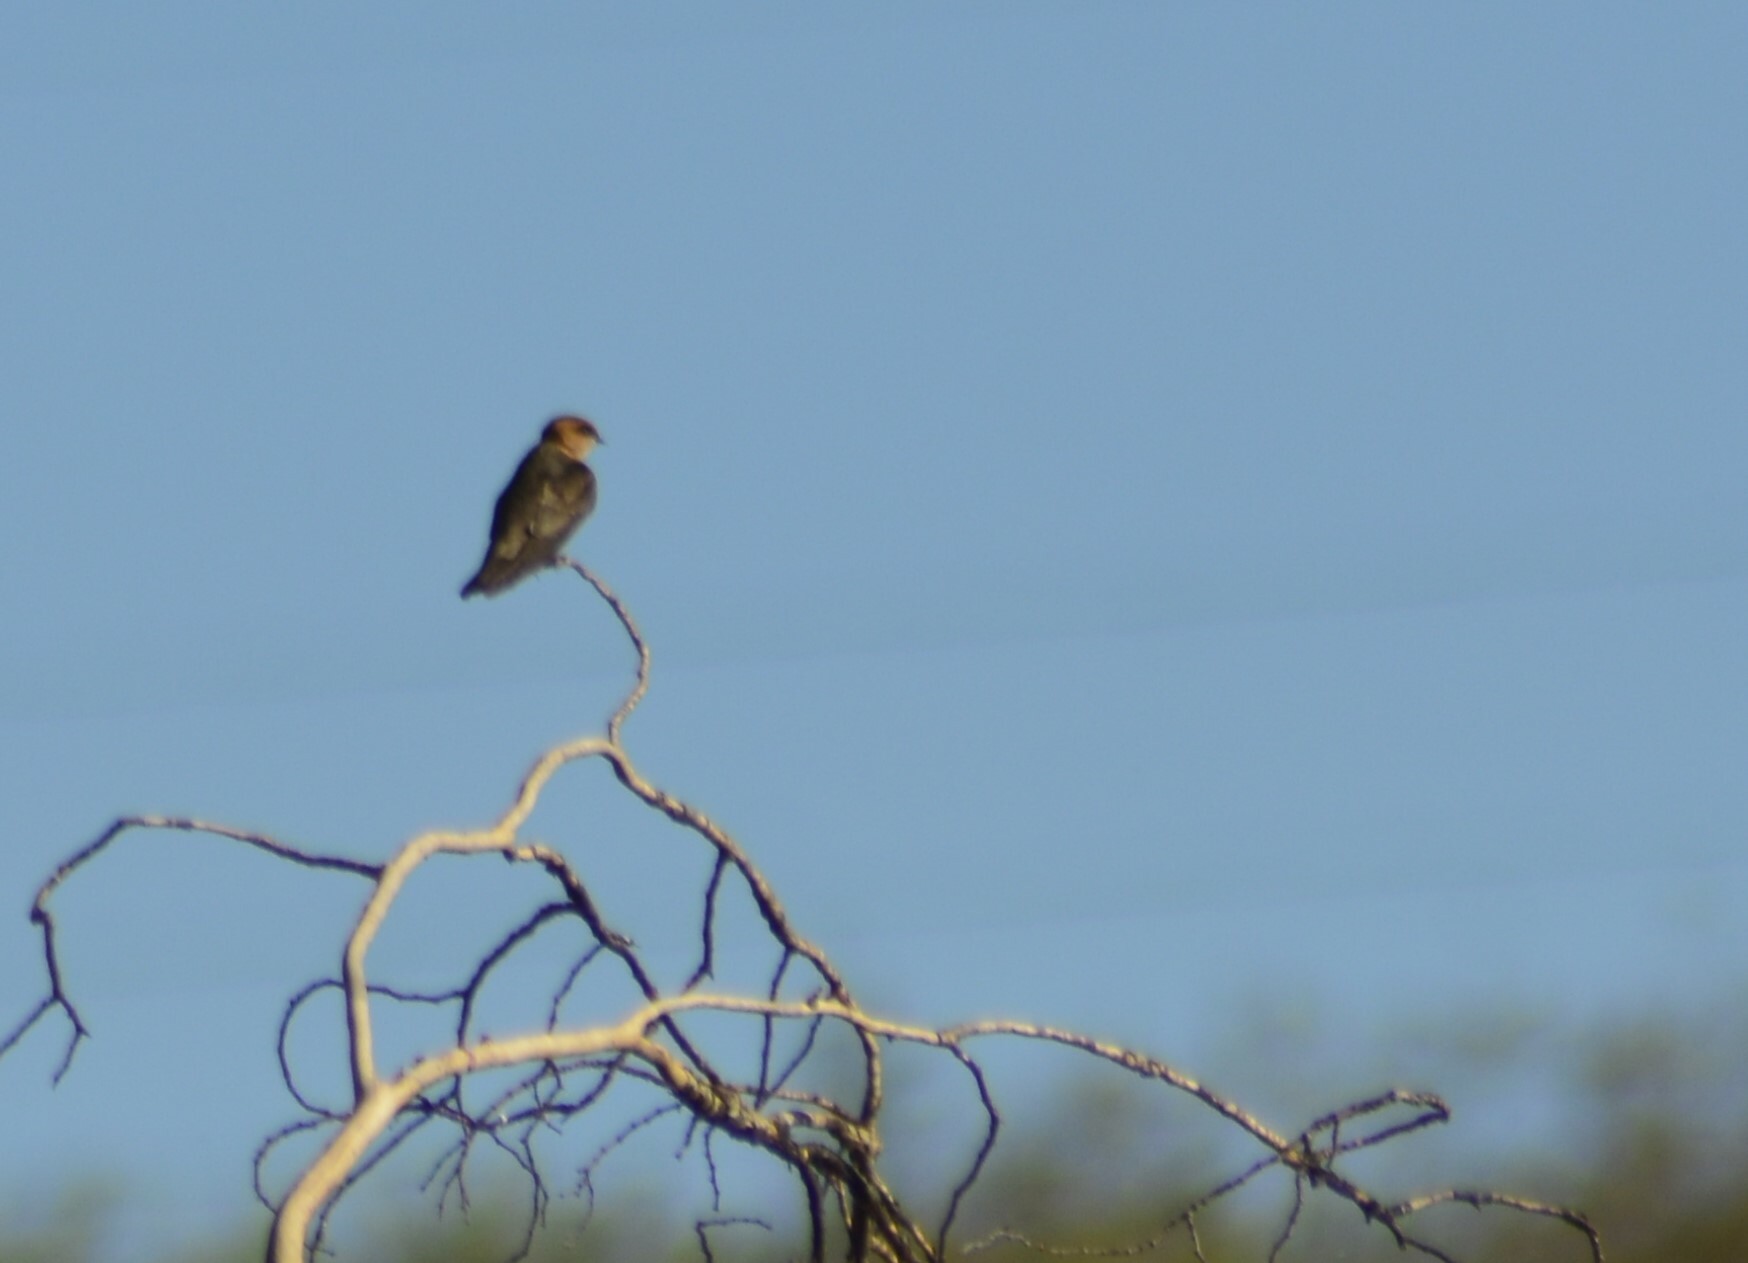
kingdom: Animalia
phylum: Chordata
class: Aves
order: Passeriformes
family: Hirundinidae
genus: Alopochelidon
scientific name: Alopochelidon fucata
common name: Tawny-headed swallow
